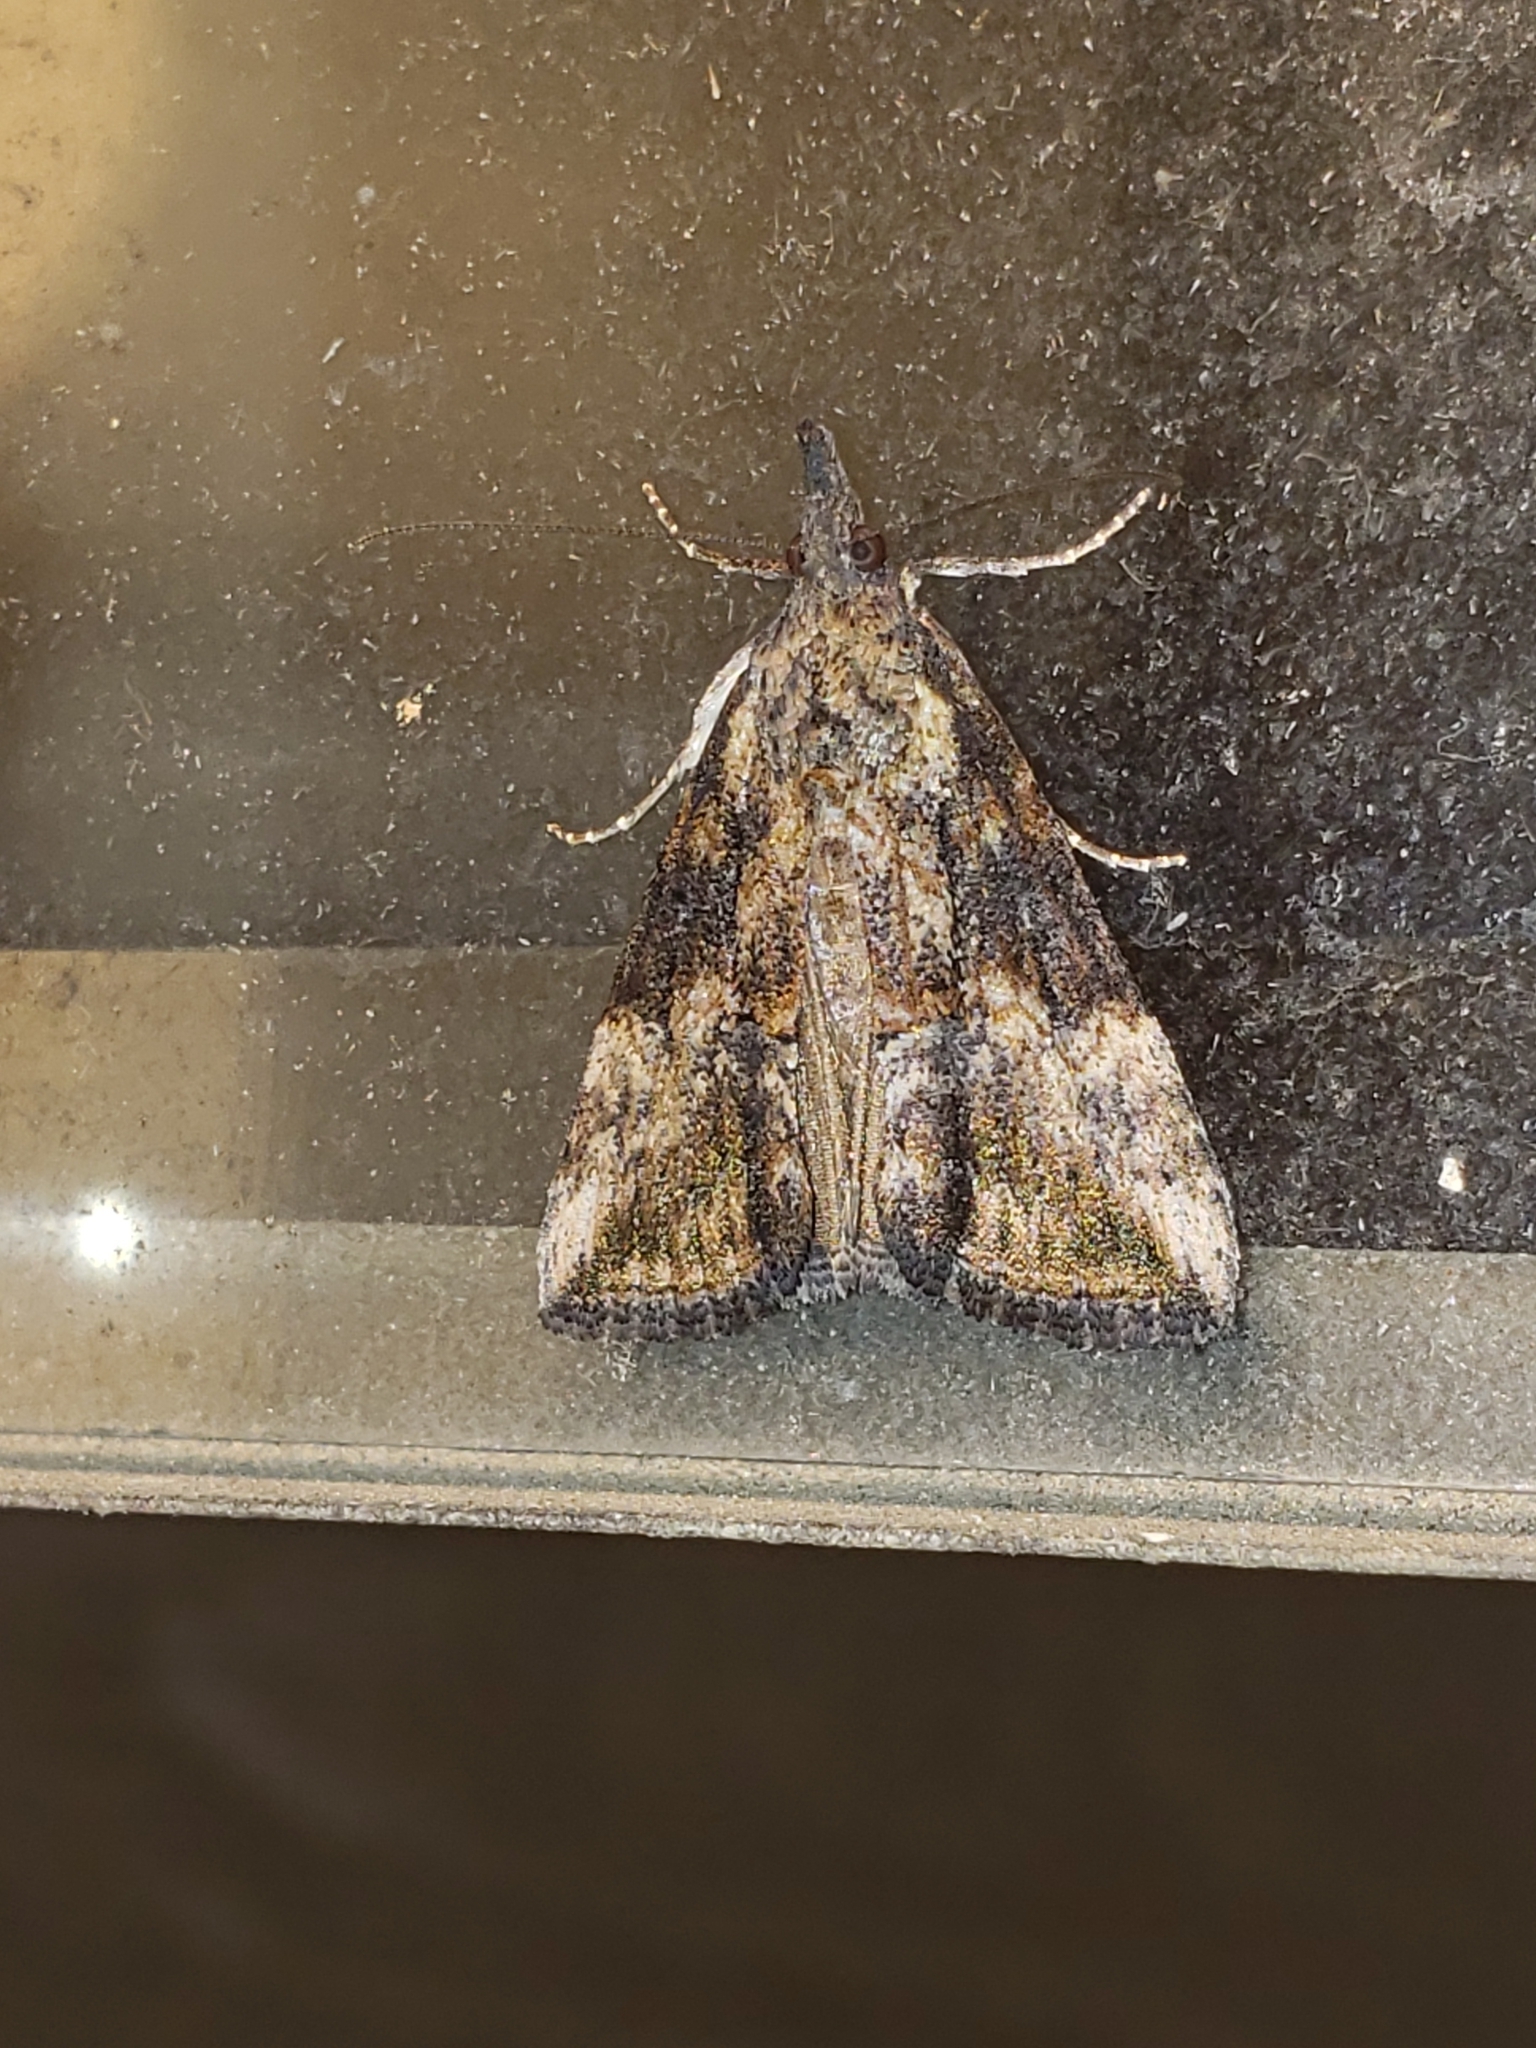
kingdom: Animalia
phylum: Arthropoda
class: Insecta
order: Lepidoptera
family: Erebidae
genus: Hypena
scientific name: Hypena scabra
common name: Green cloverworm
